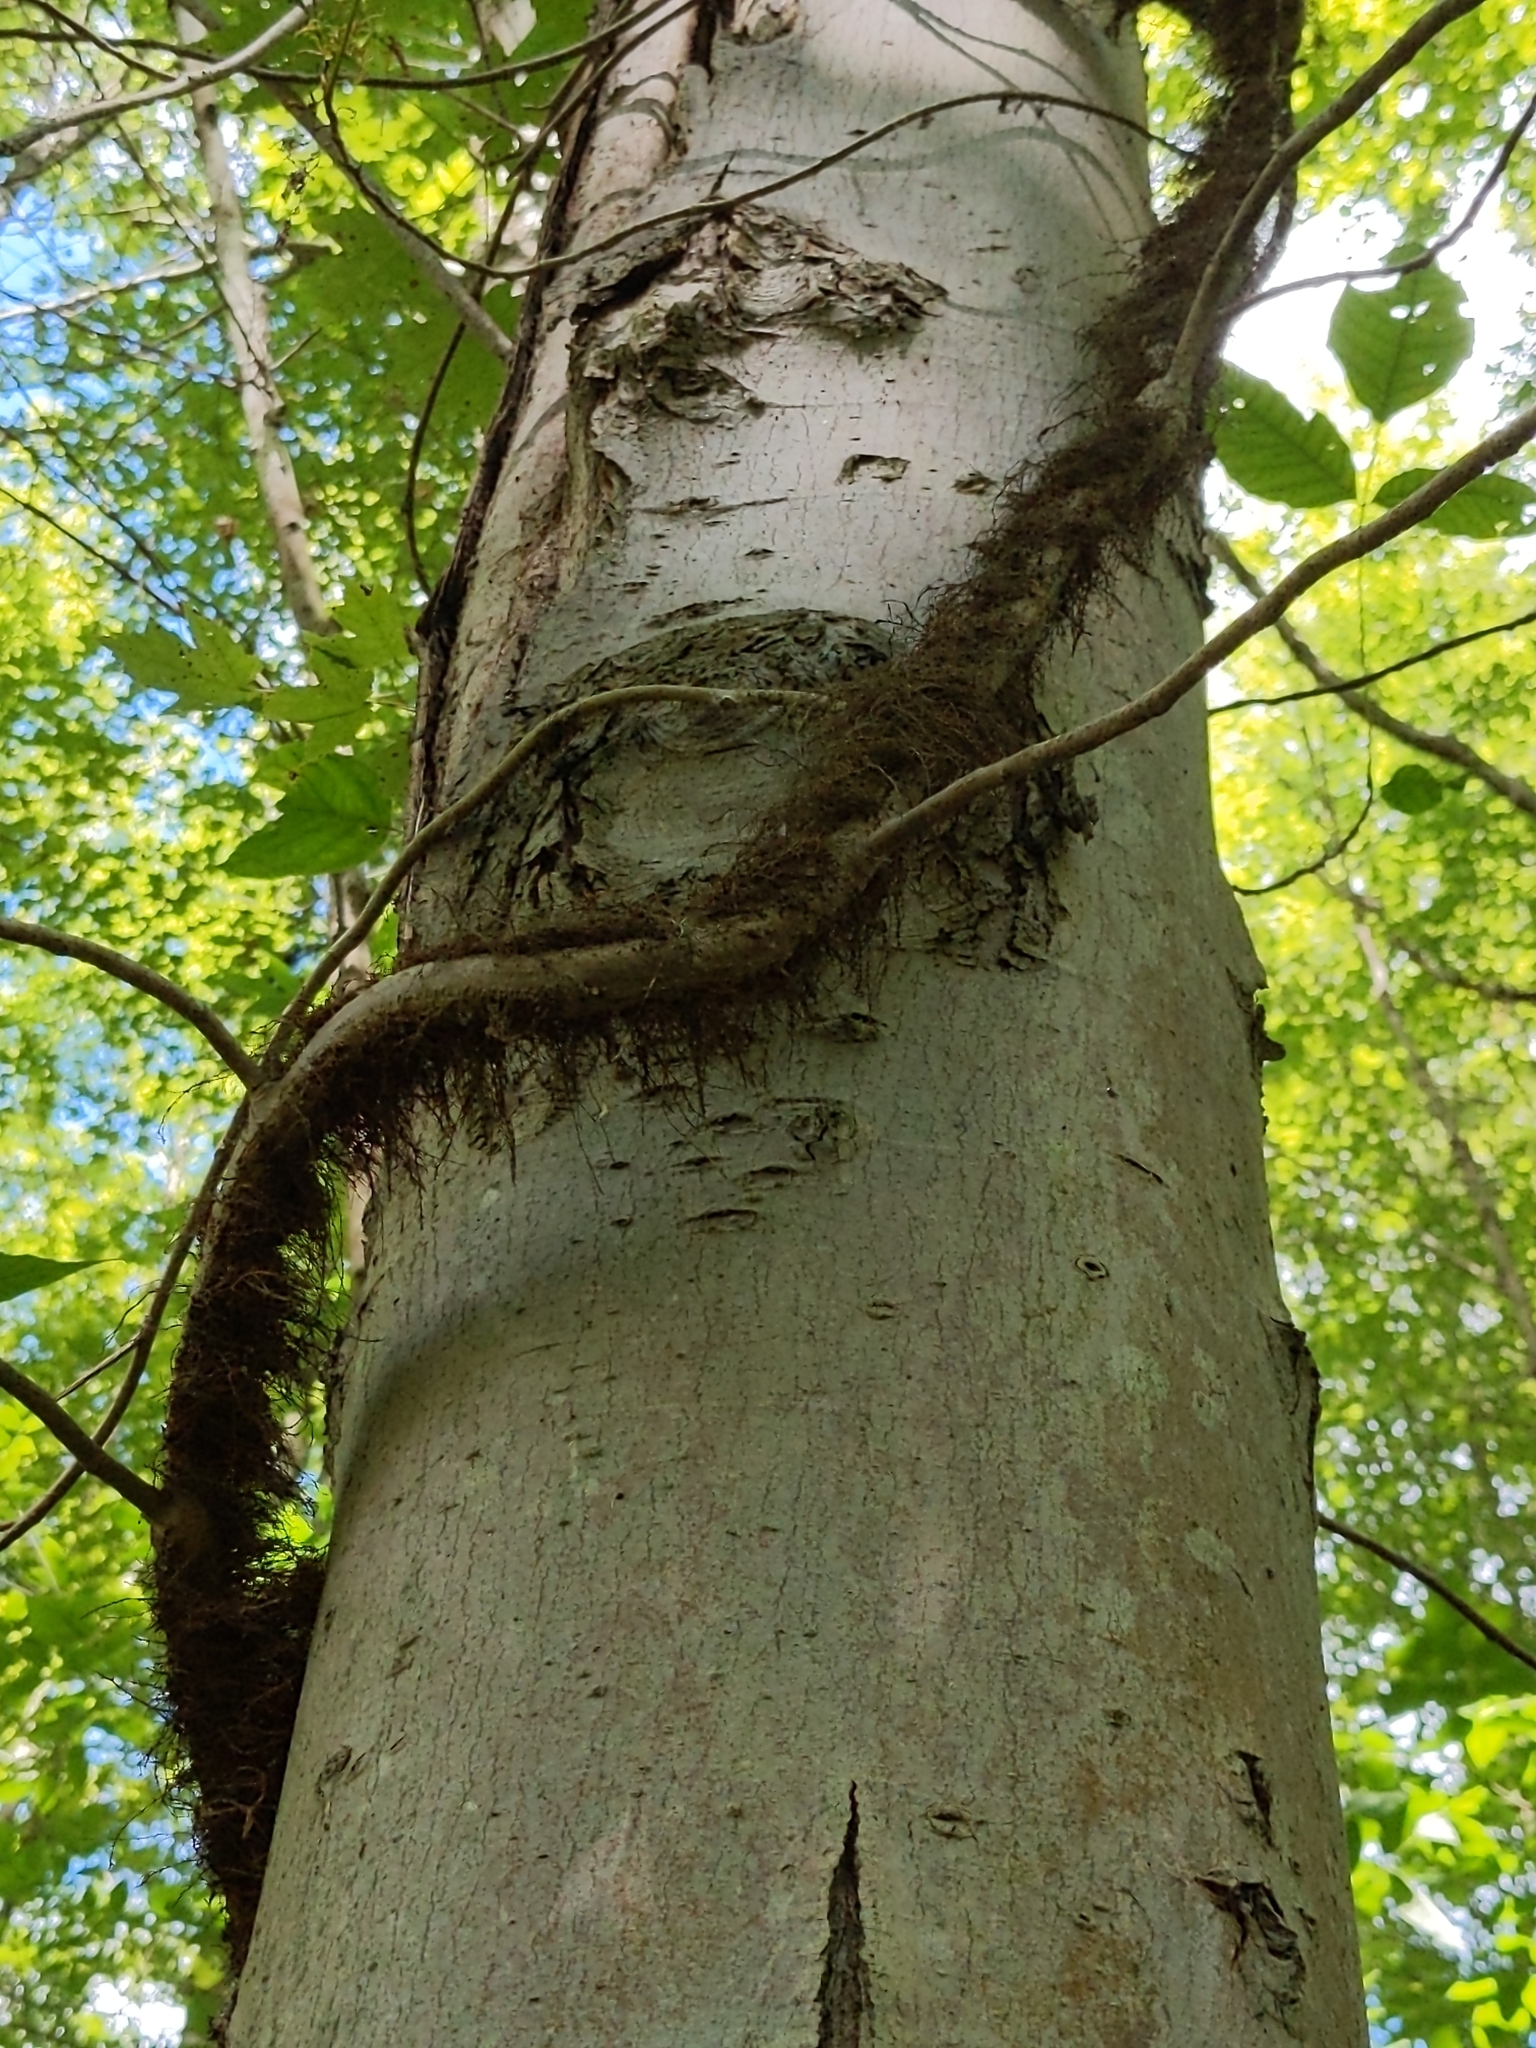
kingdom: Plantae
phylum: Tracheophyta
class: Magnoliopsida
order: Sapindales
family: Anacardiaceae
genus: Toxicodendron
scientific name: Toxicodendron radicans
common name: Poison ivy
